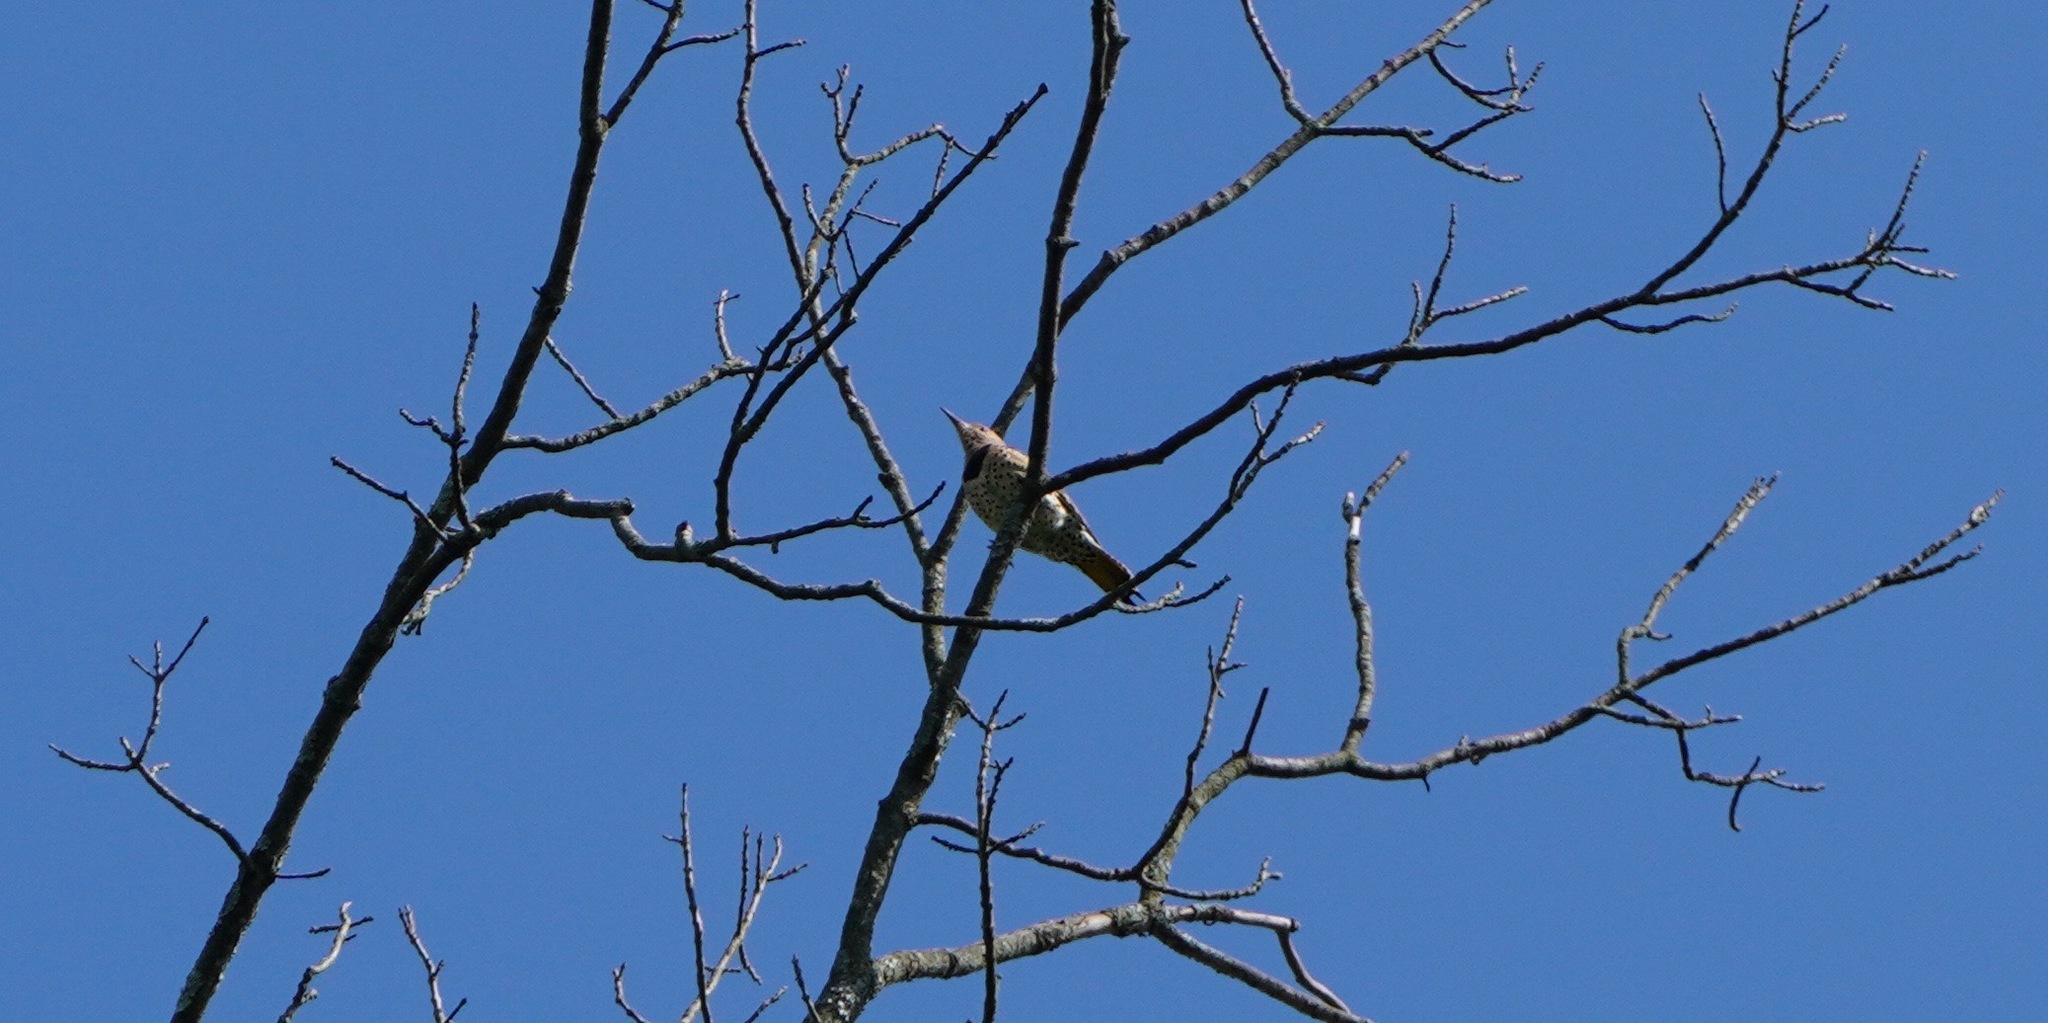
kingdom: Animalia
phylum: Chordata
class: Aves
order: Piciformes
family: Picidae
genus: Colaptes
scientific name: Colaptes auratus
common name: Northern flicker
